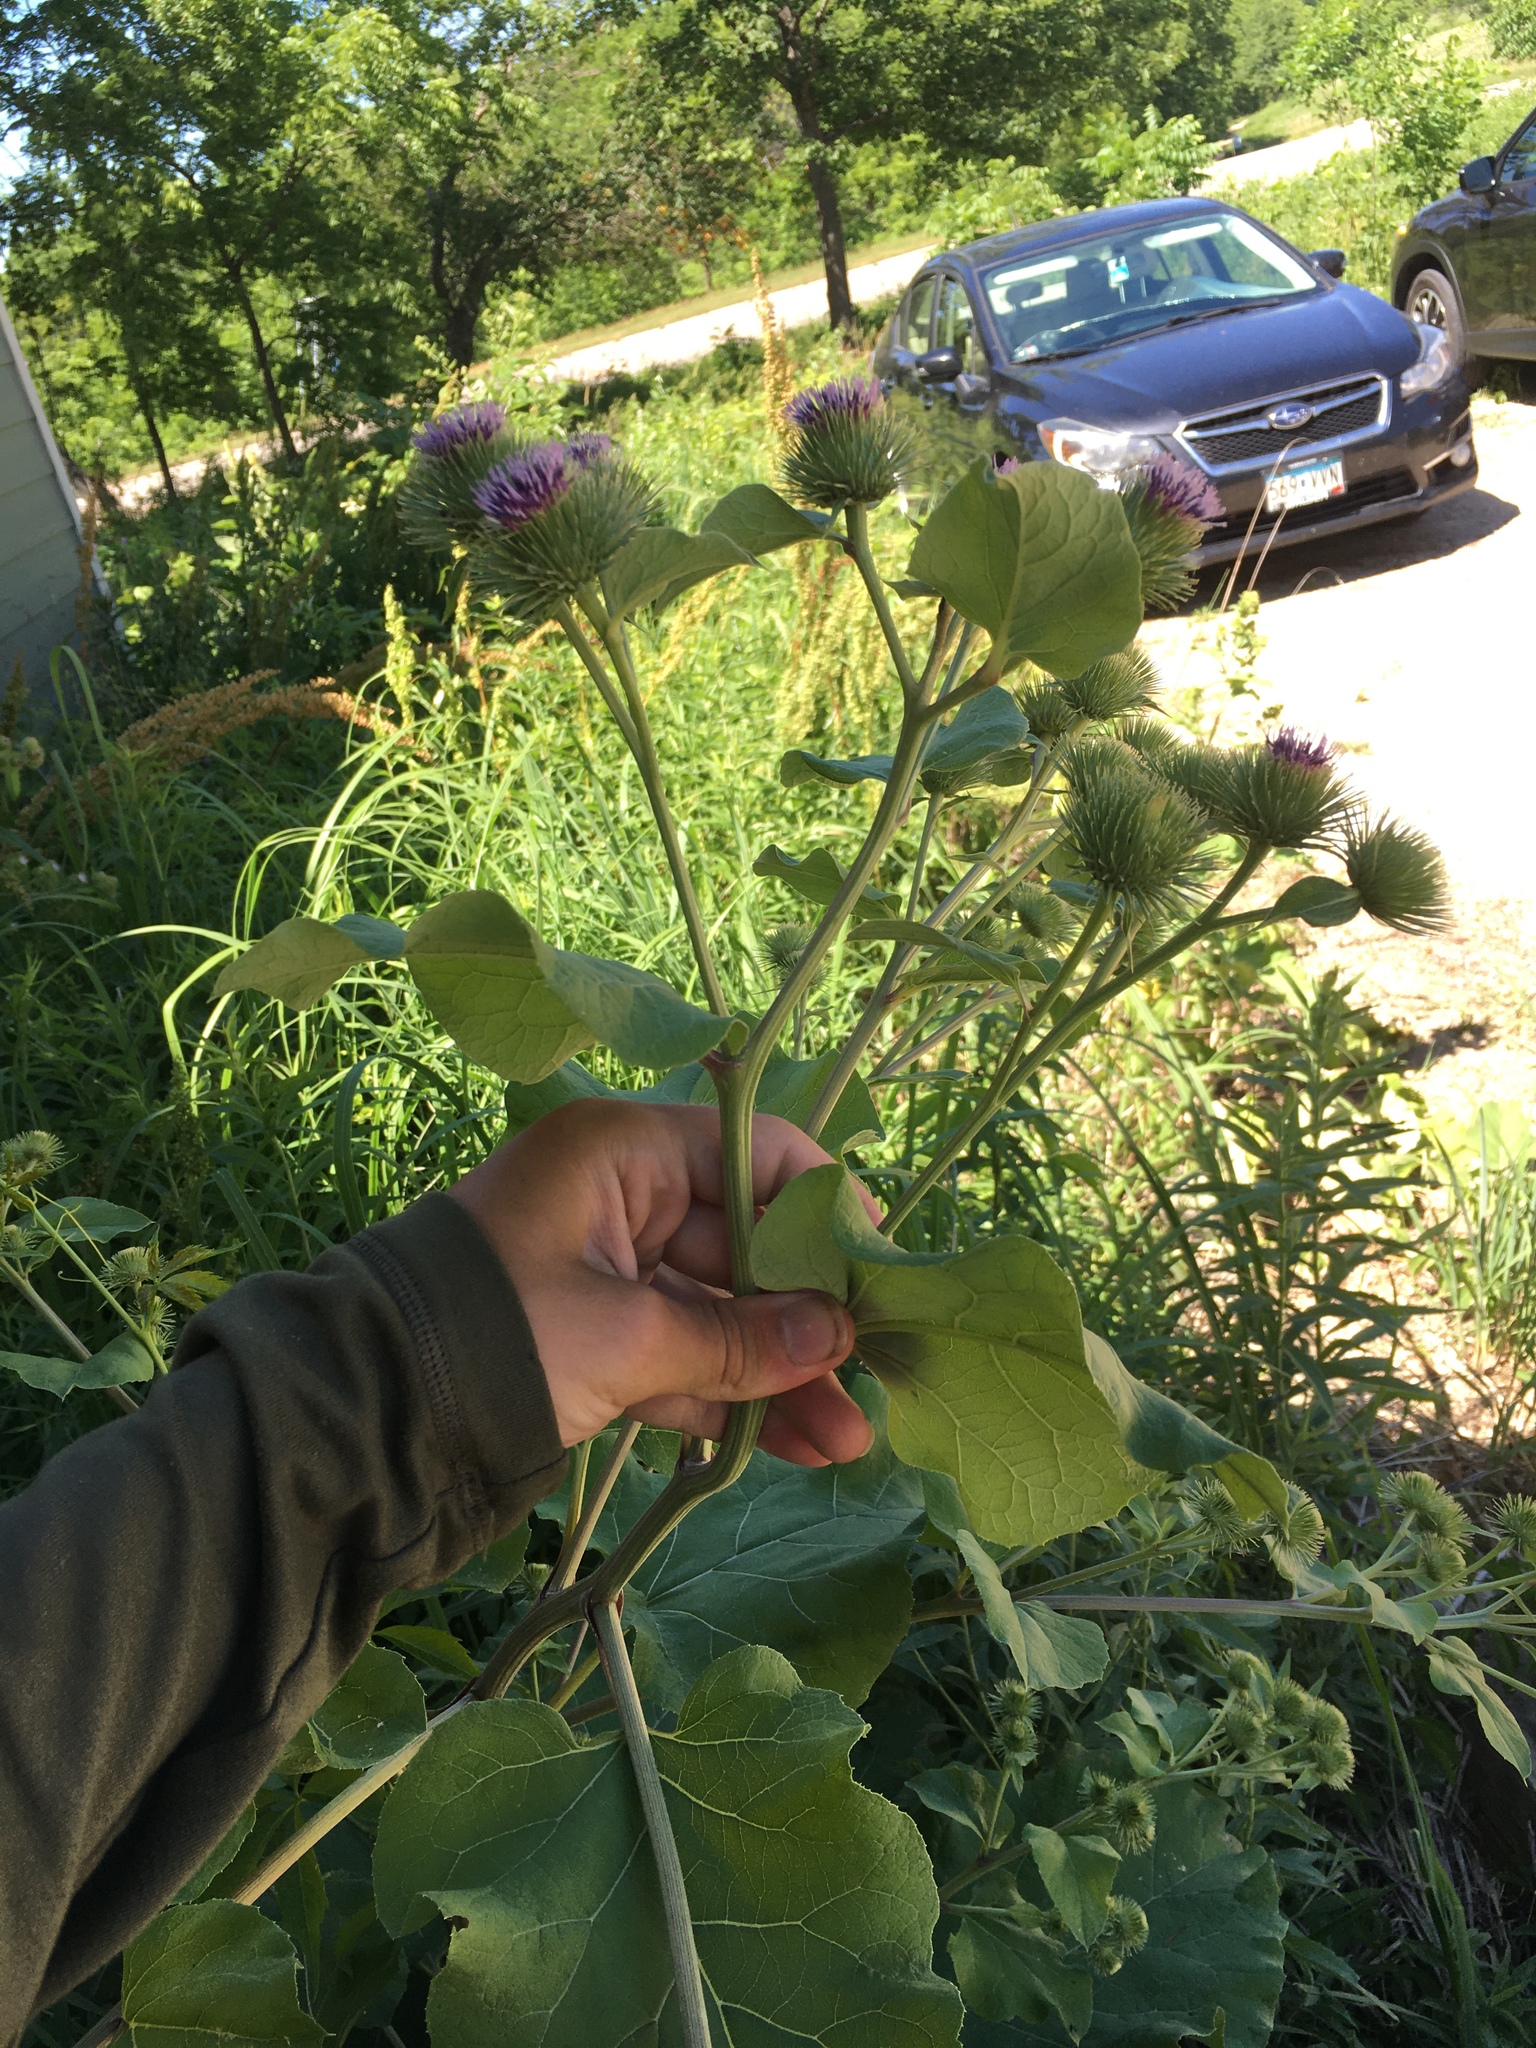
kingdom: Plantae
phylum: Tracheophyta
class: Magnoliopsida
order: Asterales
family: Asteraceae
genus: Arctium
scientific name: Arctium lappa
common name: Greater burdock
